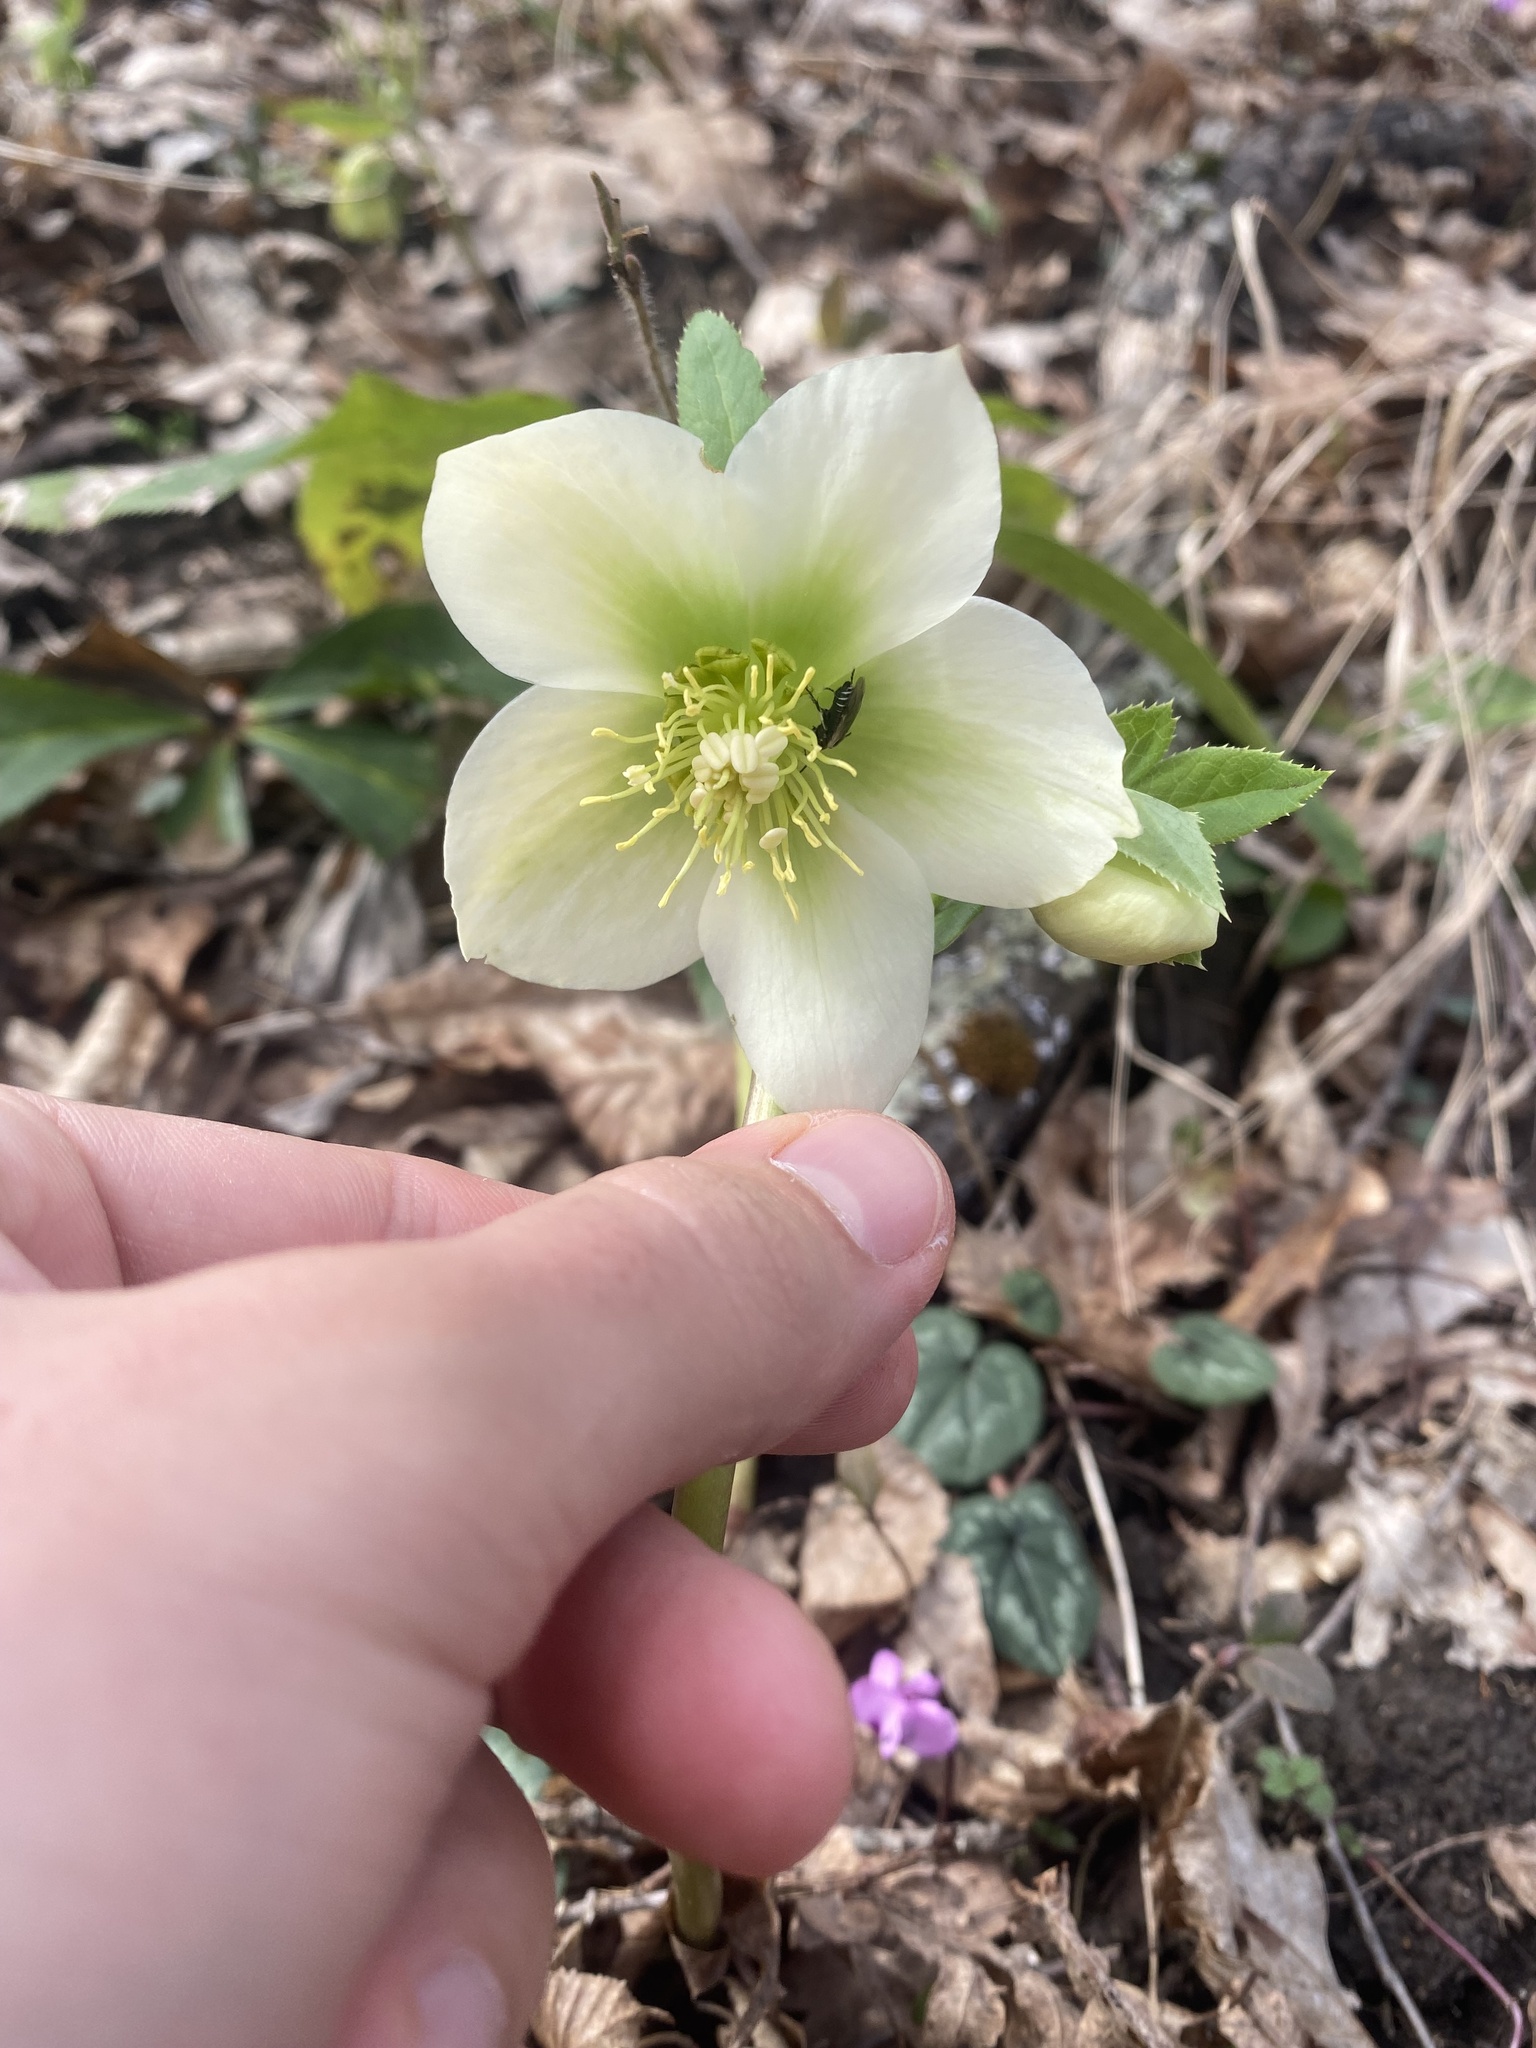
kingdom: Plantae
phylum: Tracheophyta
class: Magnoliopsida
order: Ranunculales
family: Ranunculaceae
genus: Helleborus
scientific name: Helleborus orientalis
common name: Lenten-rose
